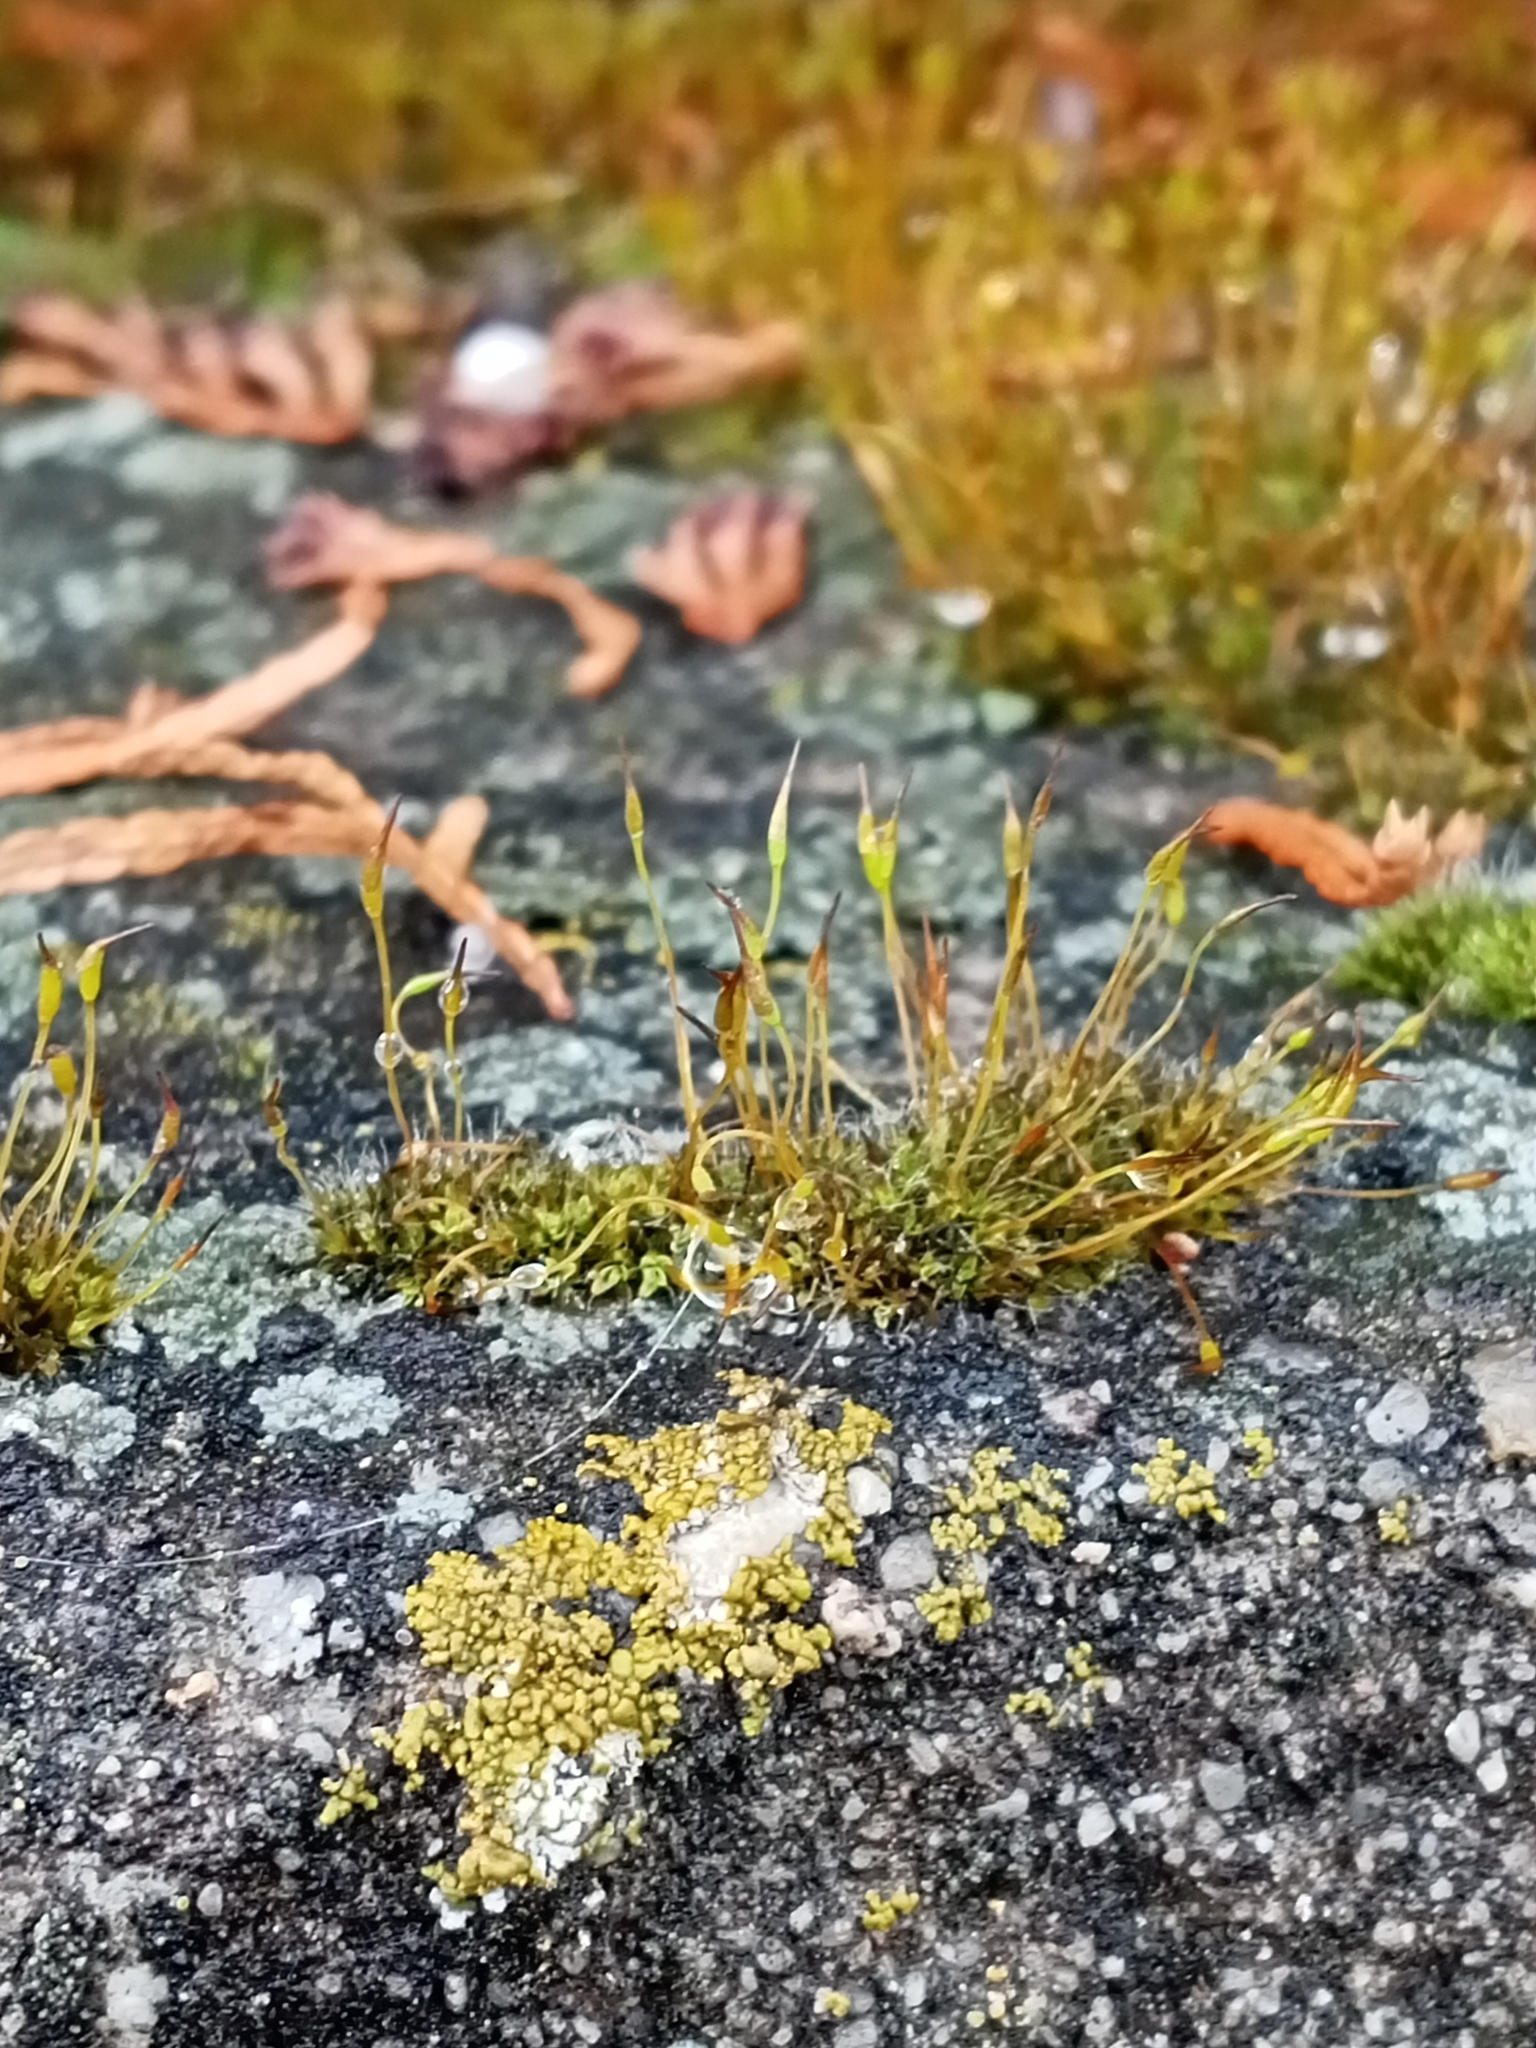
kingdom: Plantae
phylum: Bryophyta
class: Bryopsida
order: Pottiales
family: Pottiaceae
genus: Tortula
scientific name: Tortula muralis
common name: Wall screw-moss
